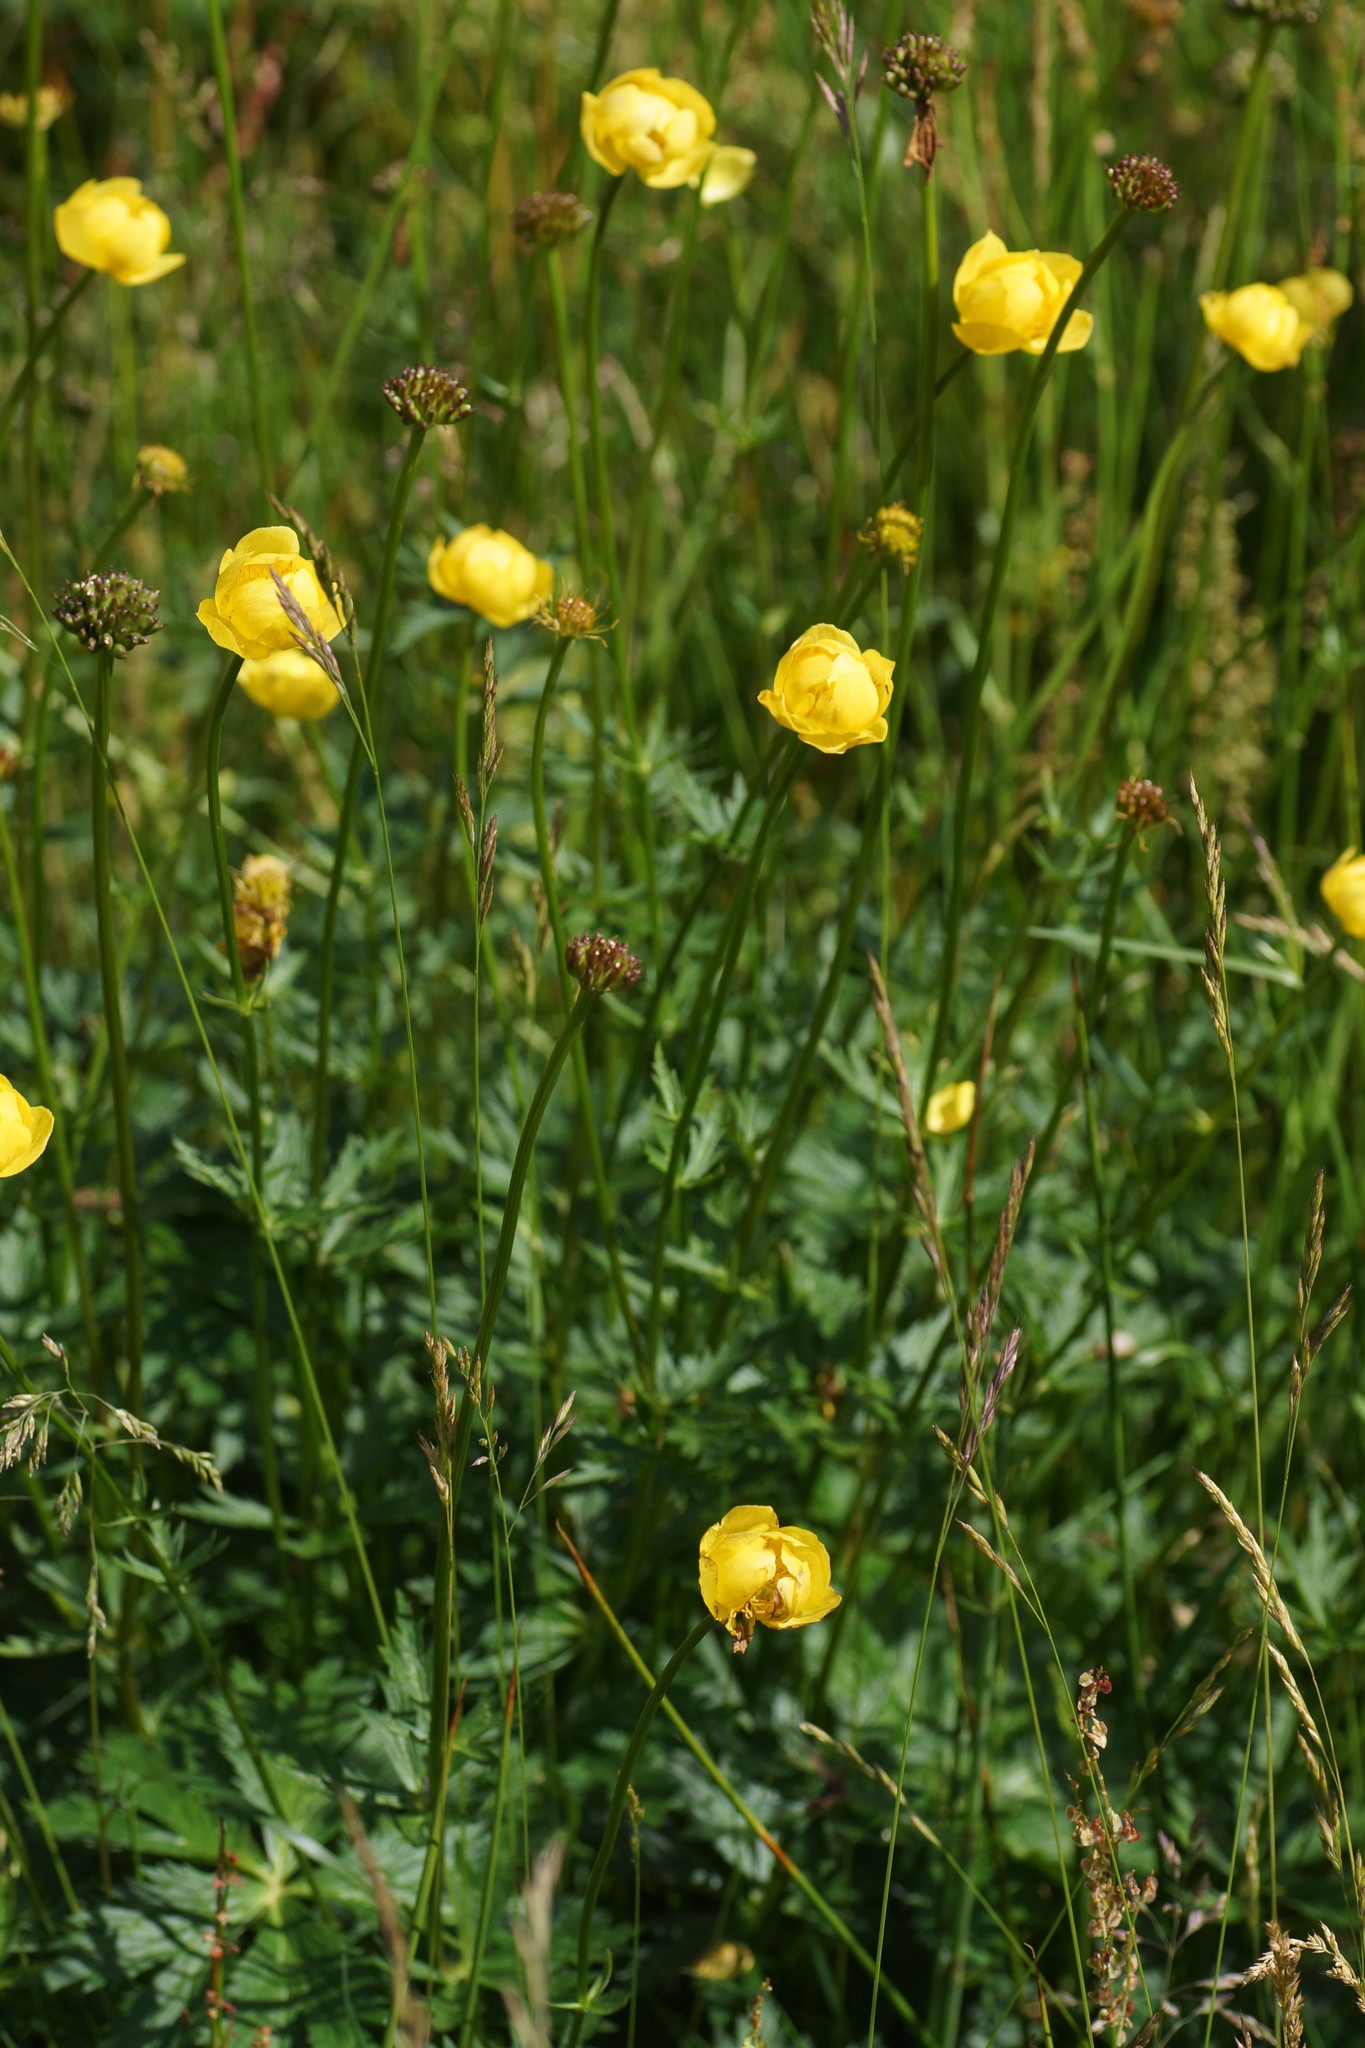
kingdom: Plantae
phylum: Tracheophyta
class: Magnoliopsida
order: Ranunculales
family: Ranunculaceae
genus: Trollius
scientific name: Trollius europaeus
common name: European globeflower
